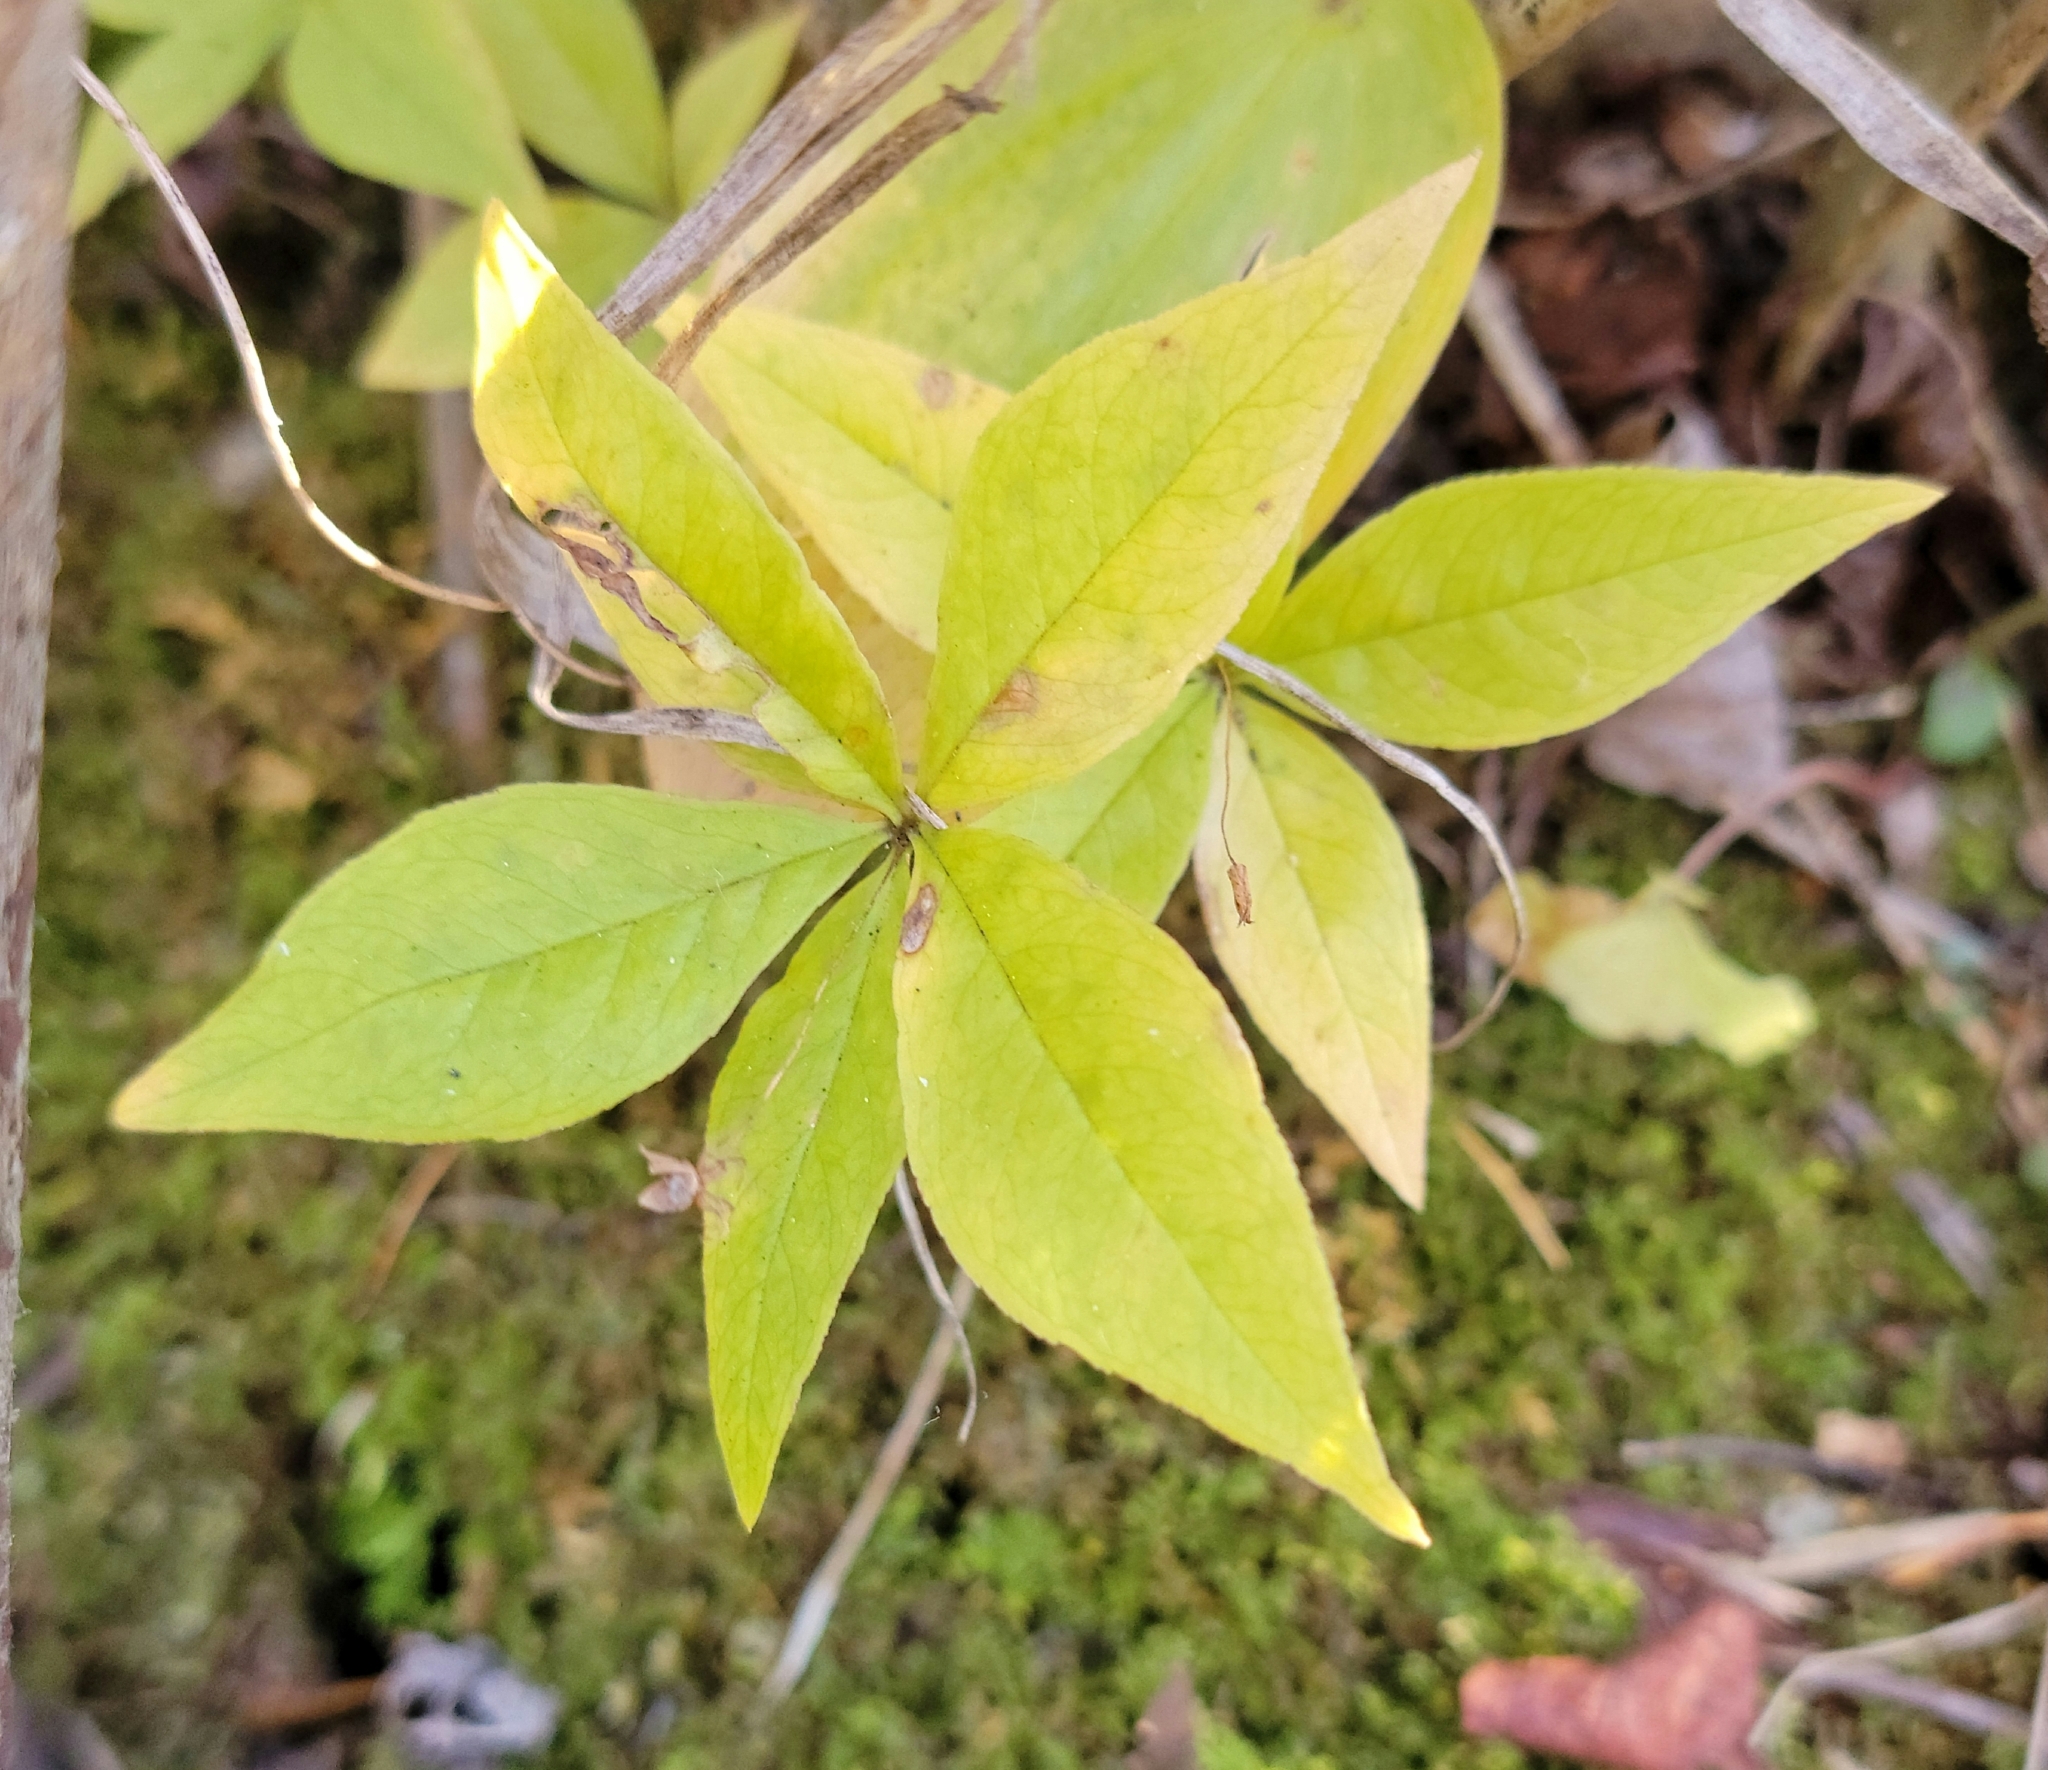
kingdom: Plantae
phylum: Tracheophyta
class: Magnoliopsida
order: Ericales
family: Primulaceae
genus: Lysimachia
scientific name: Lysimachia borealis
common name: American starflower
